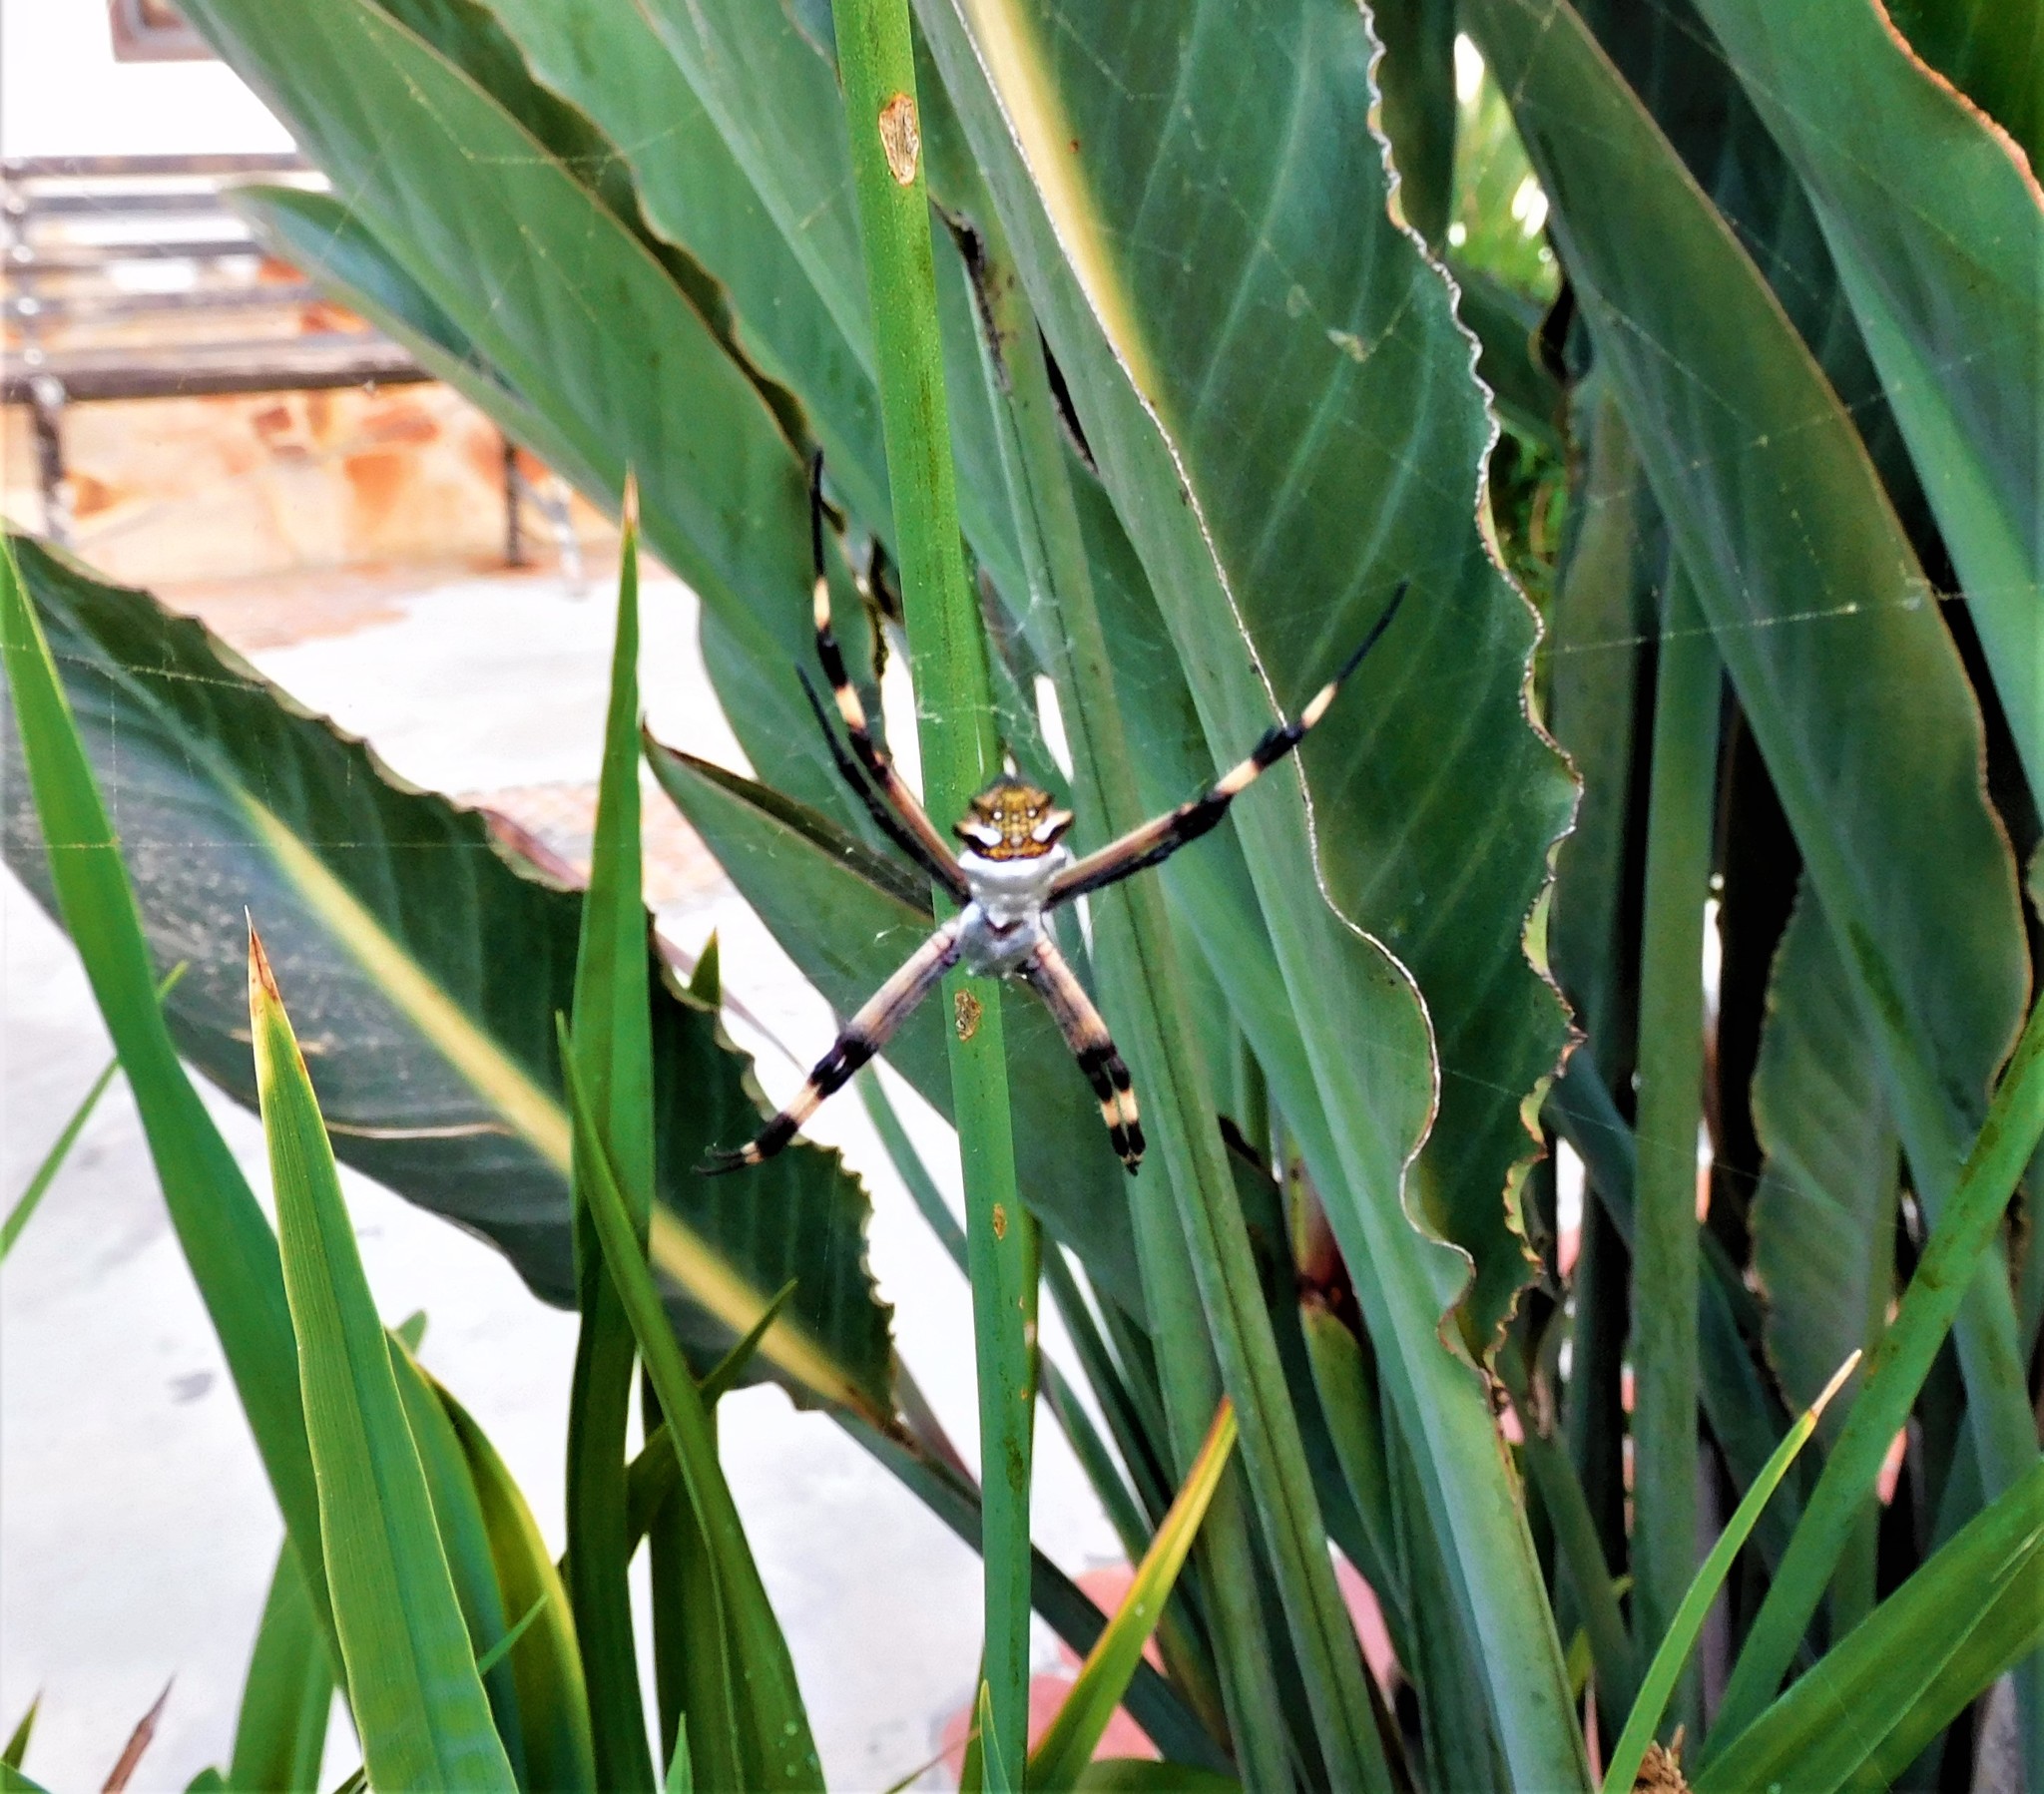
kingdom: Animalia
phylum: Arthropoda
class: Arachnida
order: Araneae
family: Araneidae
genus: Argiope
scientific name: Argiope argentata
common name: Orb weavers
